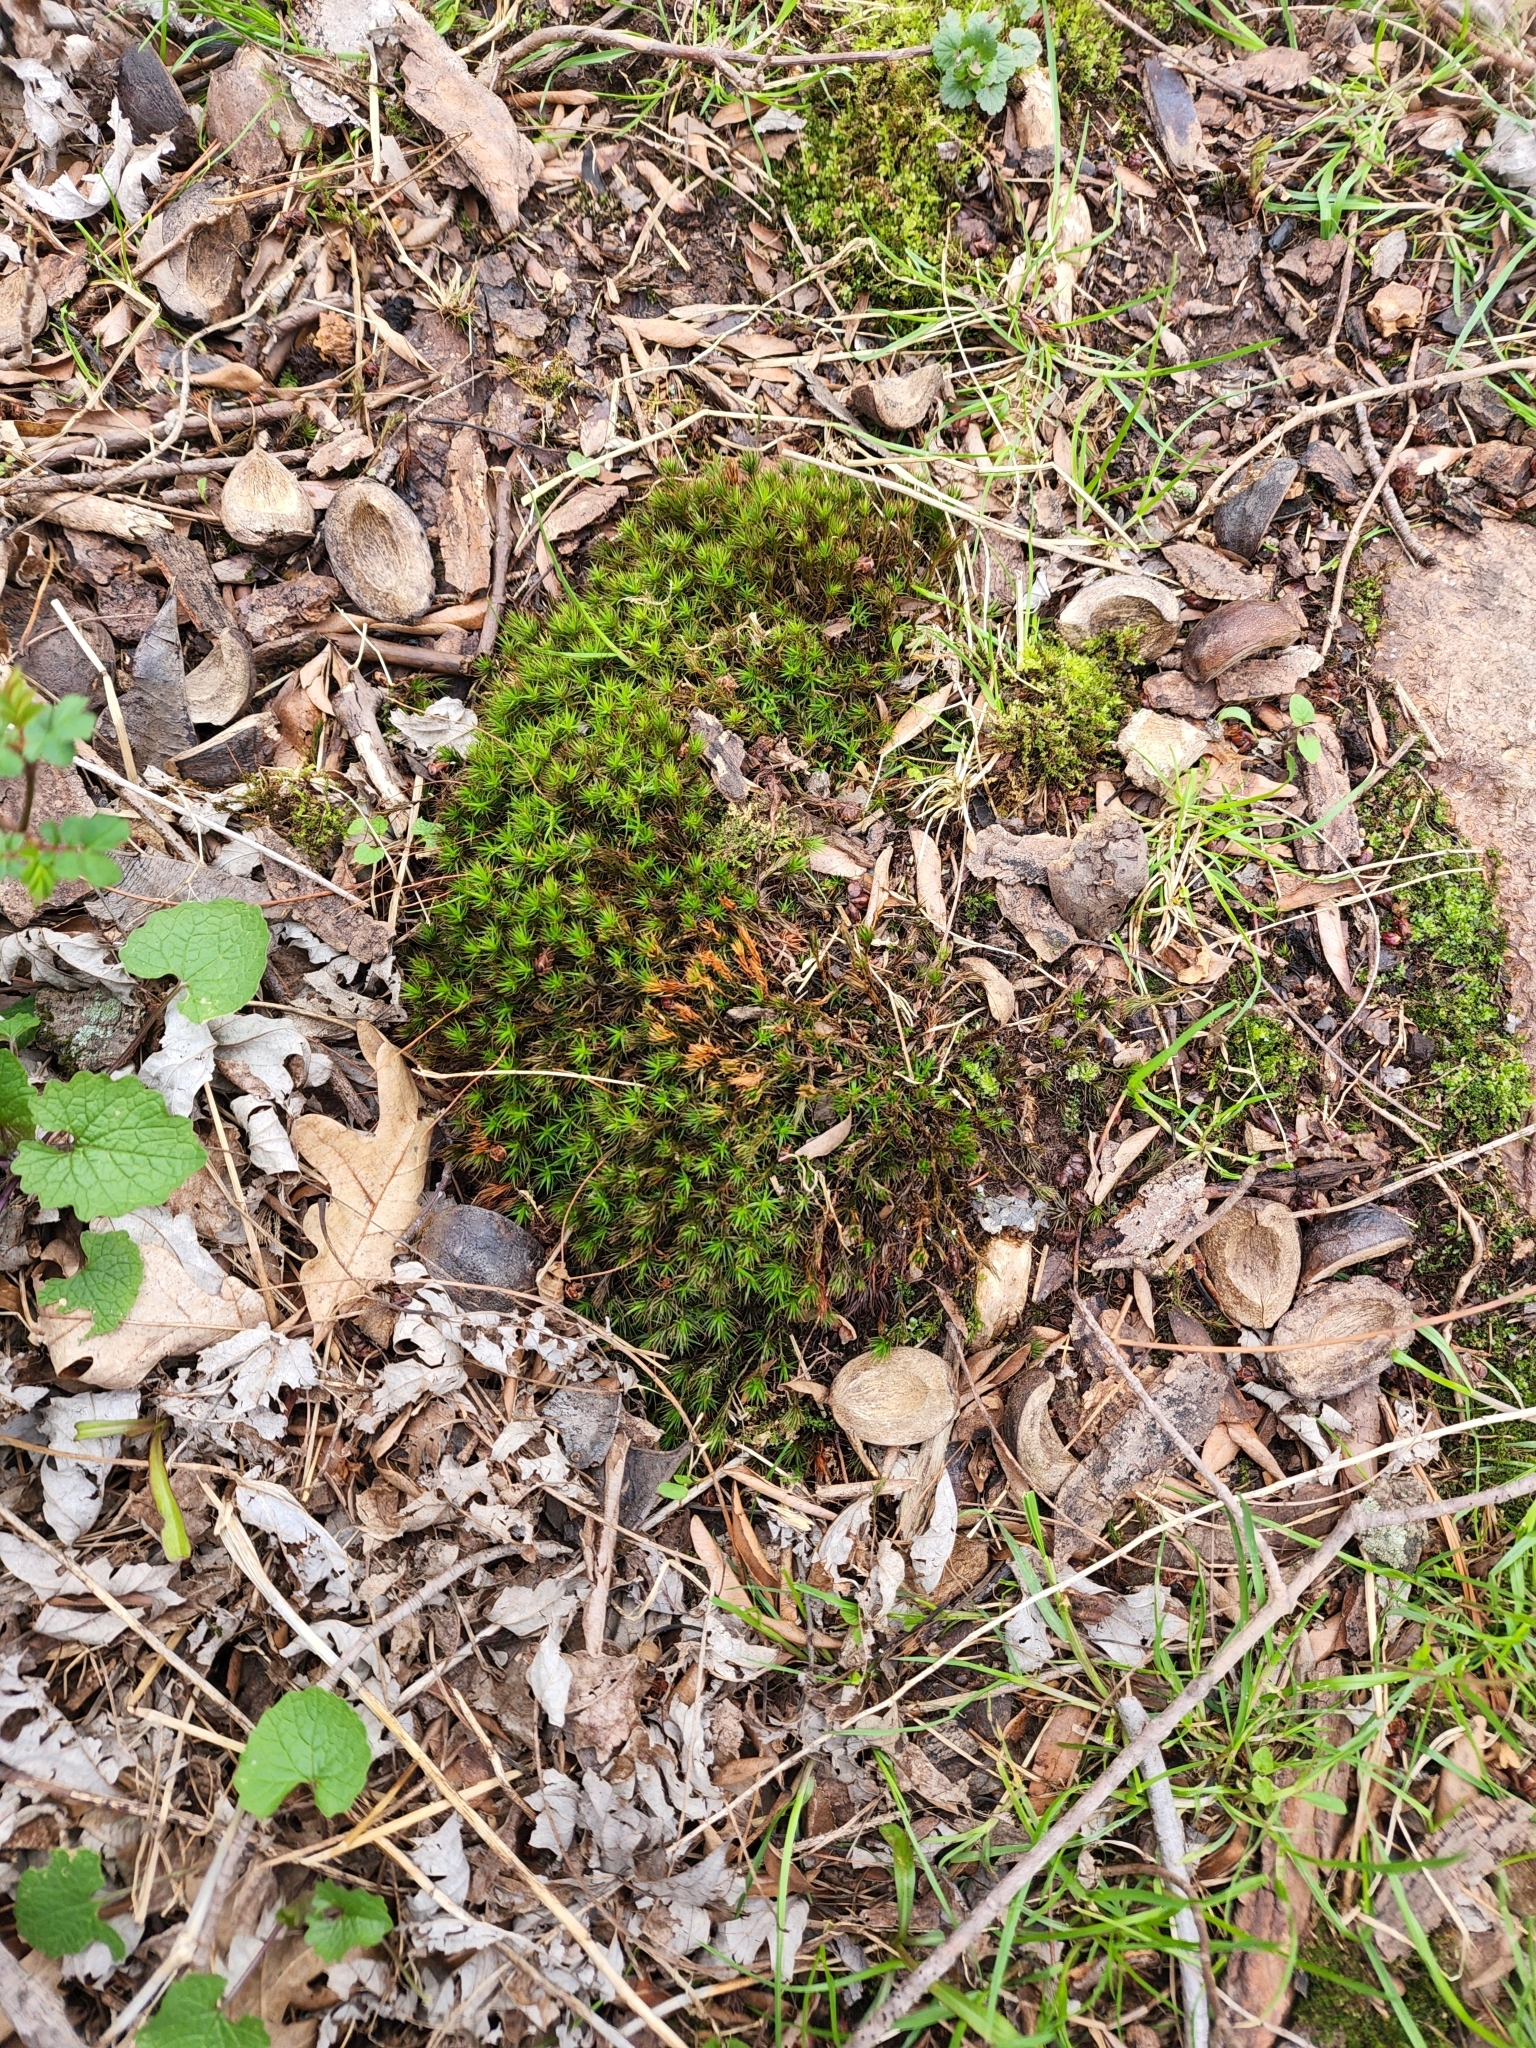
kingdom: Plantae
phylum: Bryophyta
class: Polytrichopsida
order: Polytrichales
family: Polytrichaceae
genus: Polytrichum
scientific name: Polytrichum commune
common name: Common haircap
